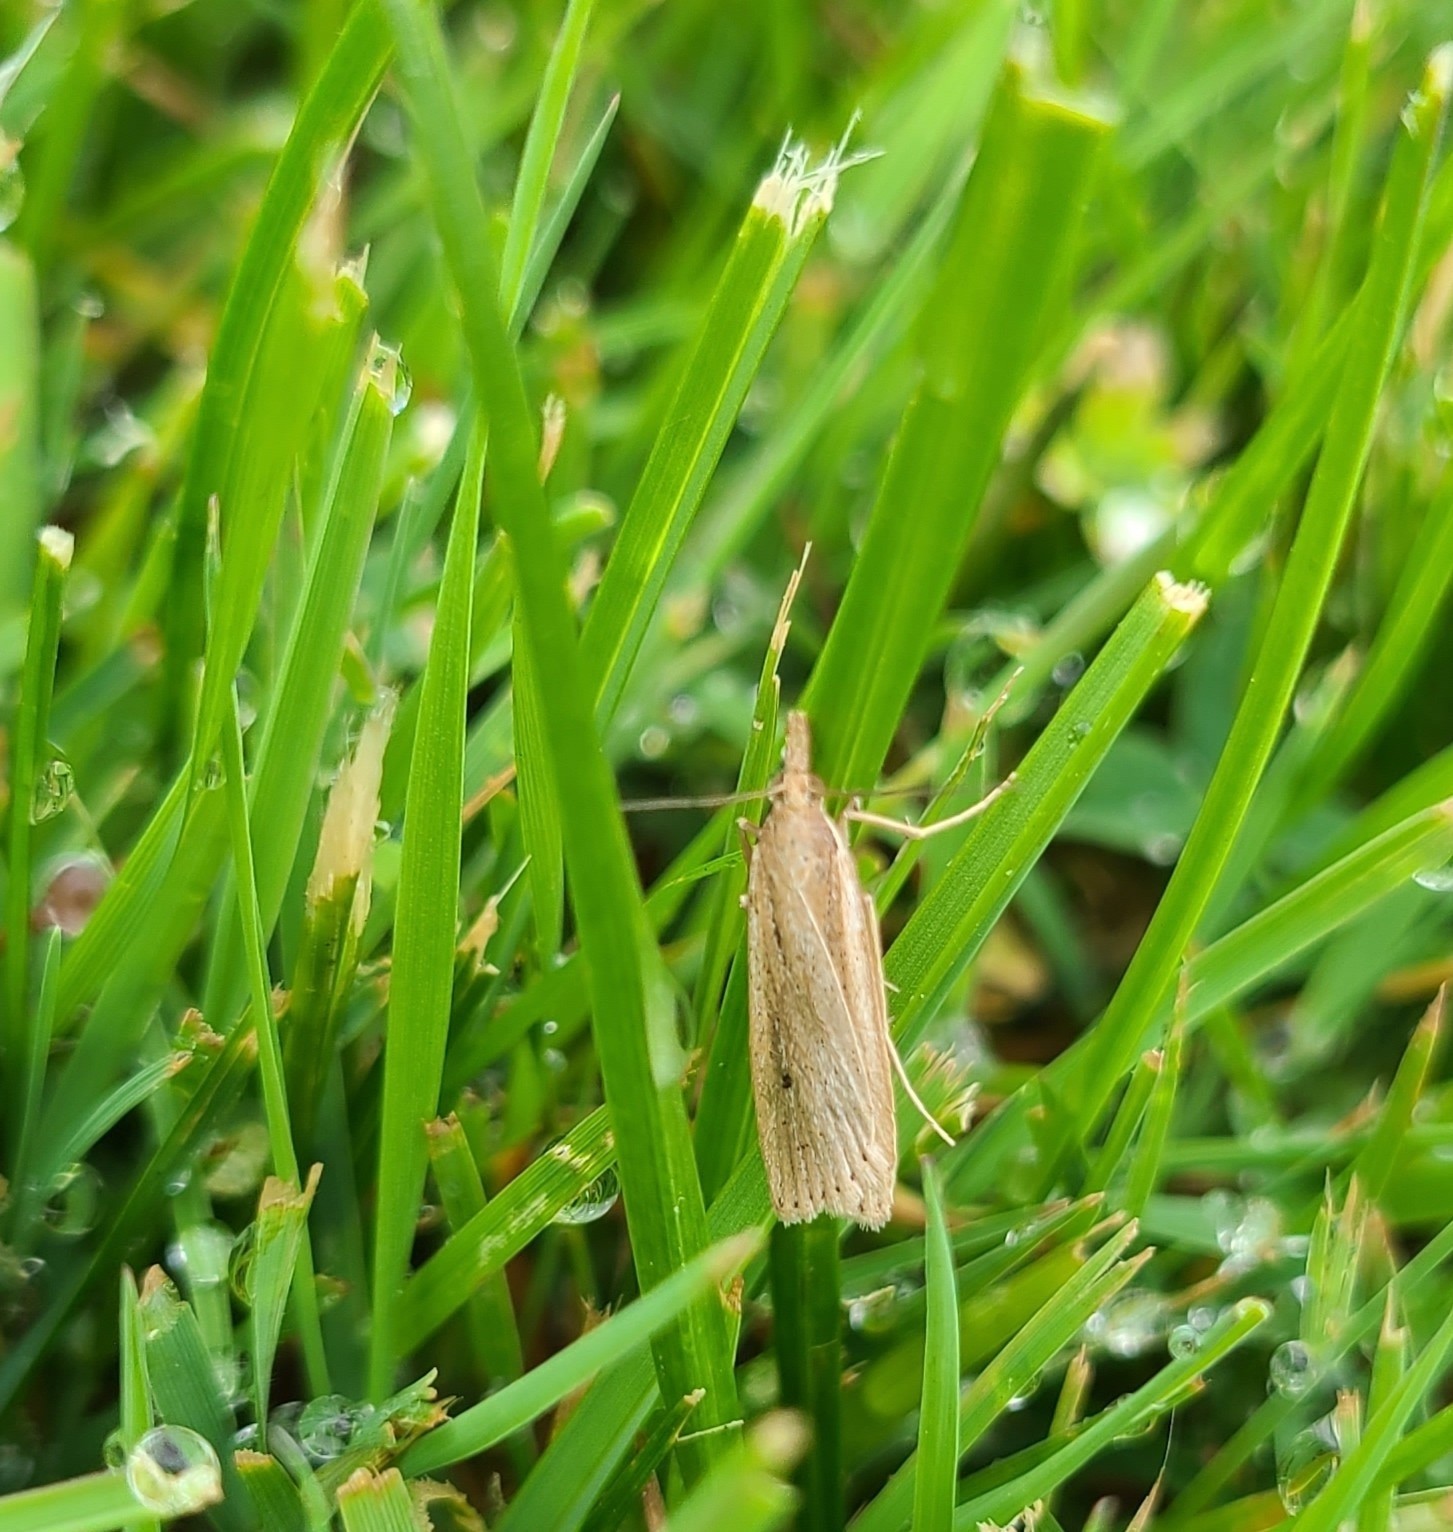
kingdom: Animalia
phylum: Arthropoda
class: Insecta
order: Lepidoptera
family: Crambidae
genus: Eudonia
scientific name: Eudonia sabulosella
